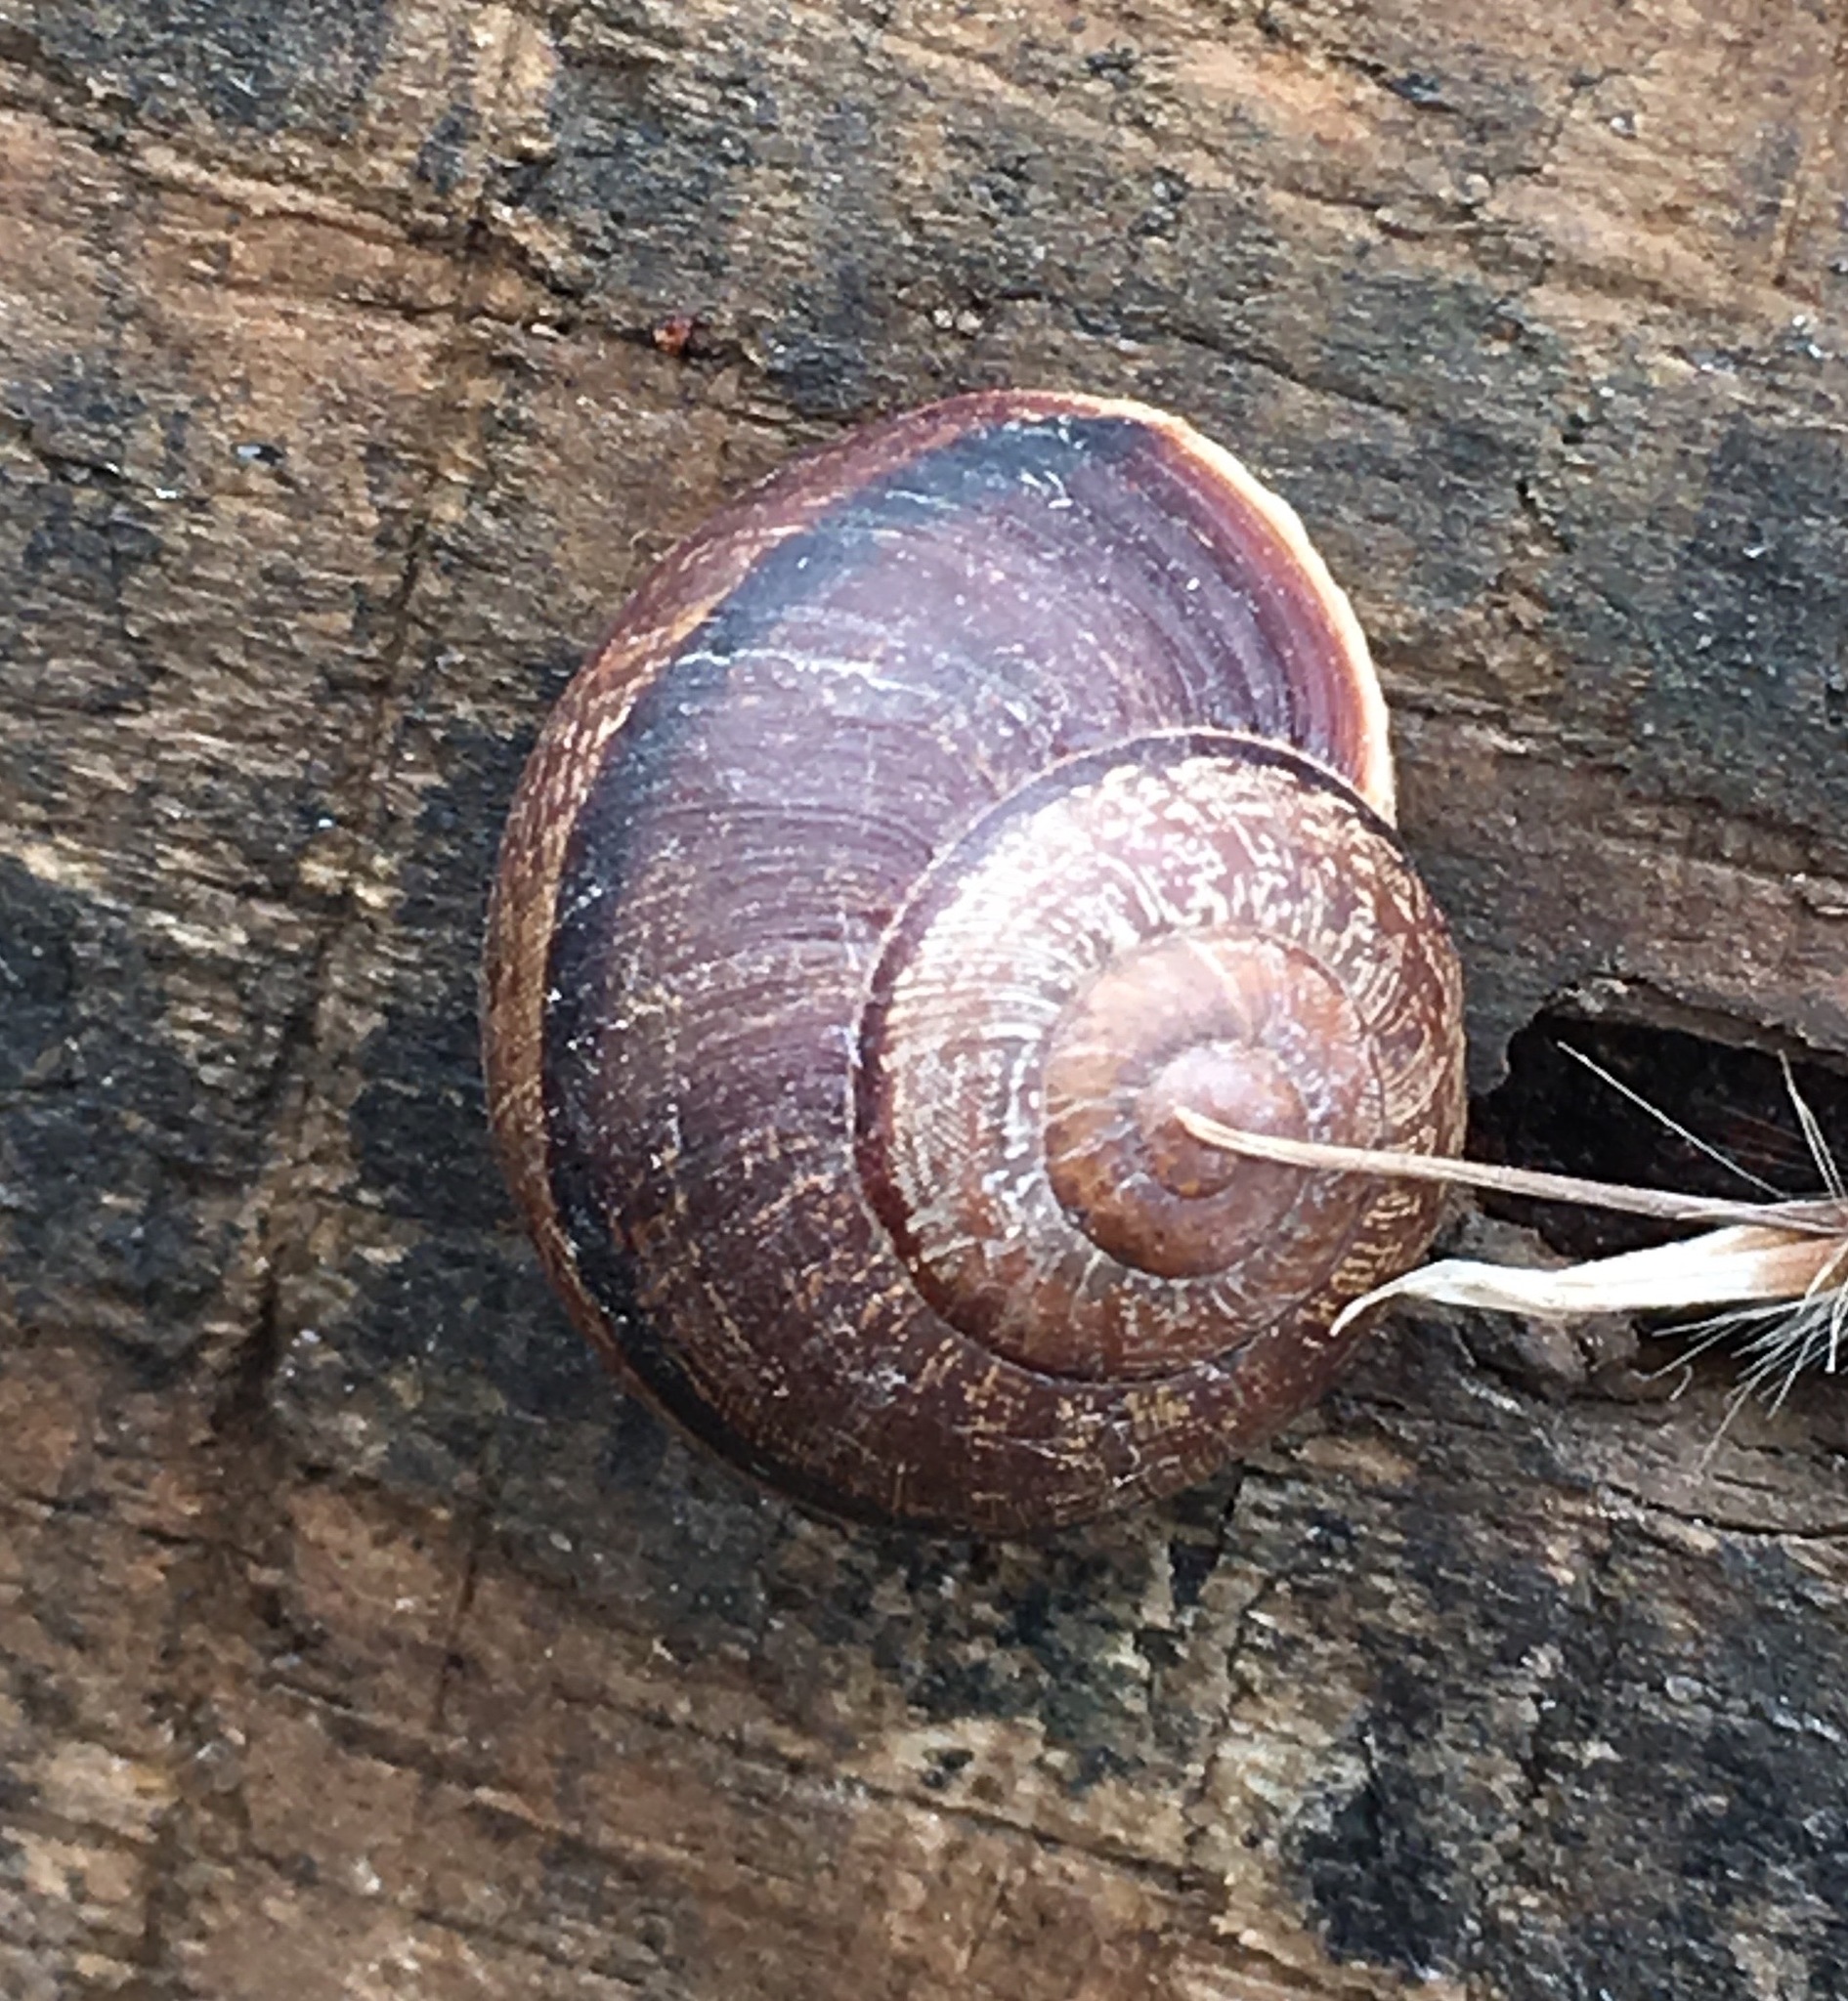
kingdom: Animalia
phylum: Mollusca
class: Gastropoda
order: Stylommatophora
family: Xanthonychidae
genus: Xerarionta
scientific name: Xerarionta redimita
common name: Wreathed cactus snail
